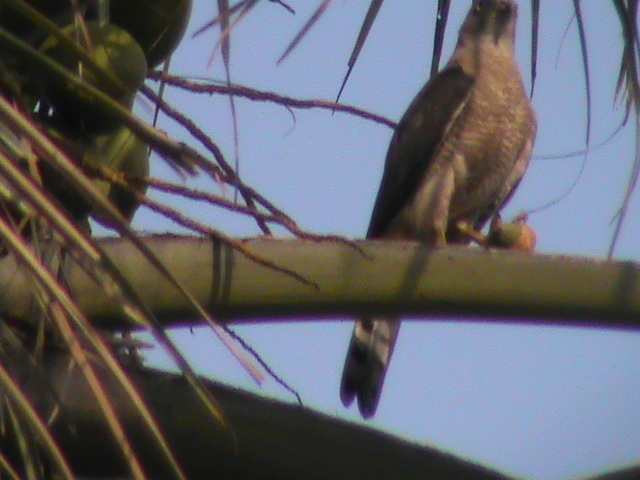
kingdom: Animalia
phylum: Chordata
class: Aves
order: Accipitriformes
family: Accipitridae
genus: Accipiter
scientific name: Accipiter badius
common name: Shikra
